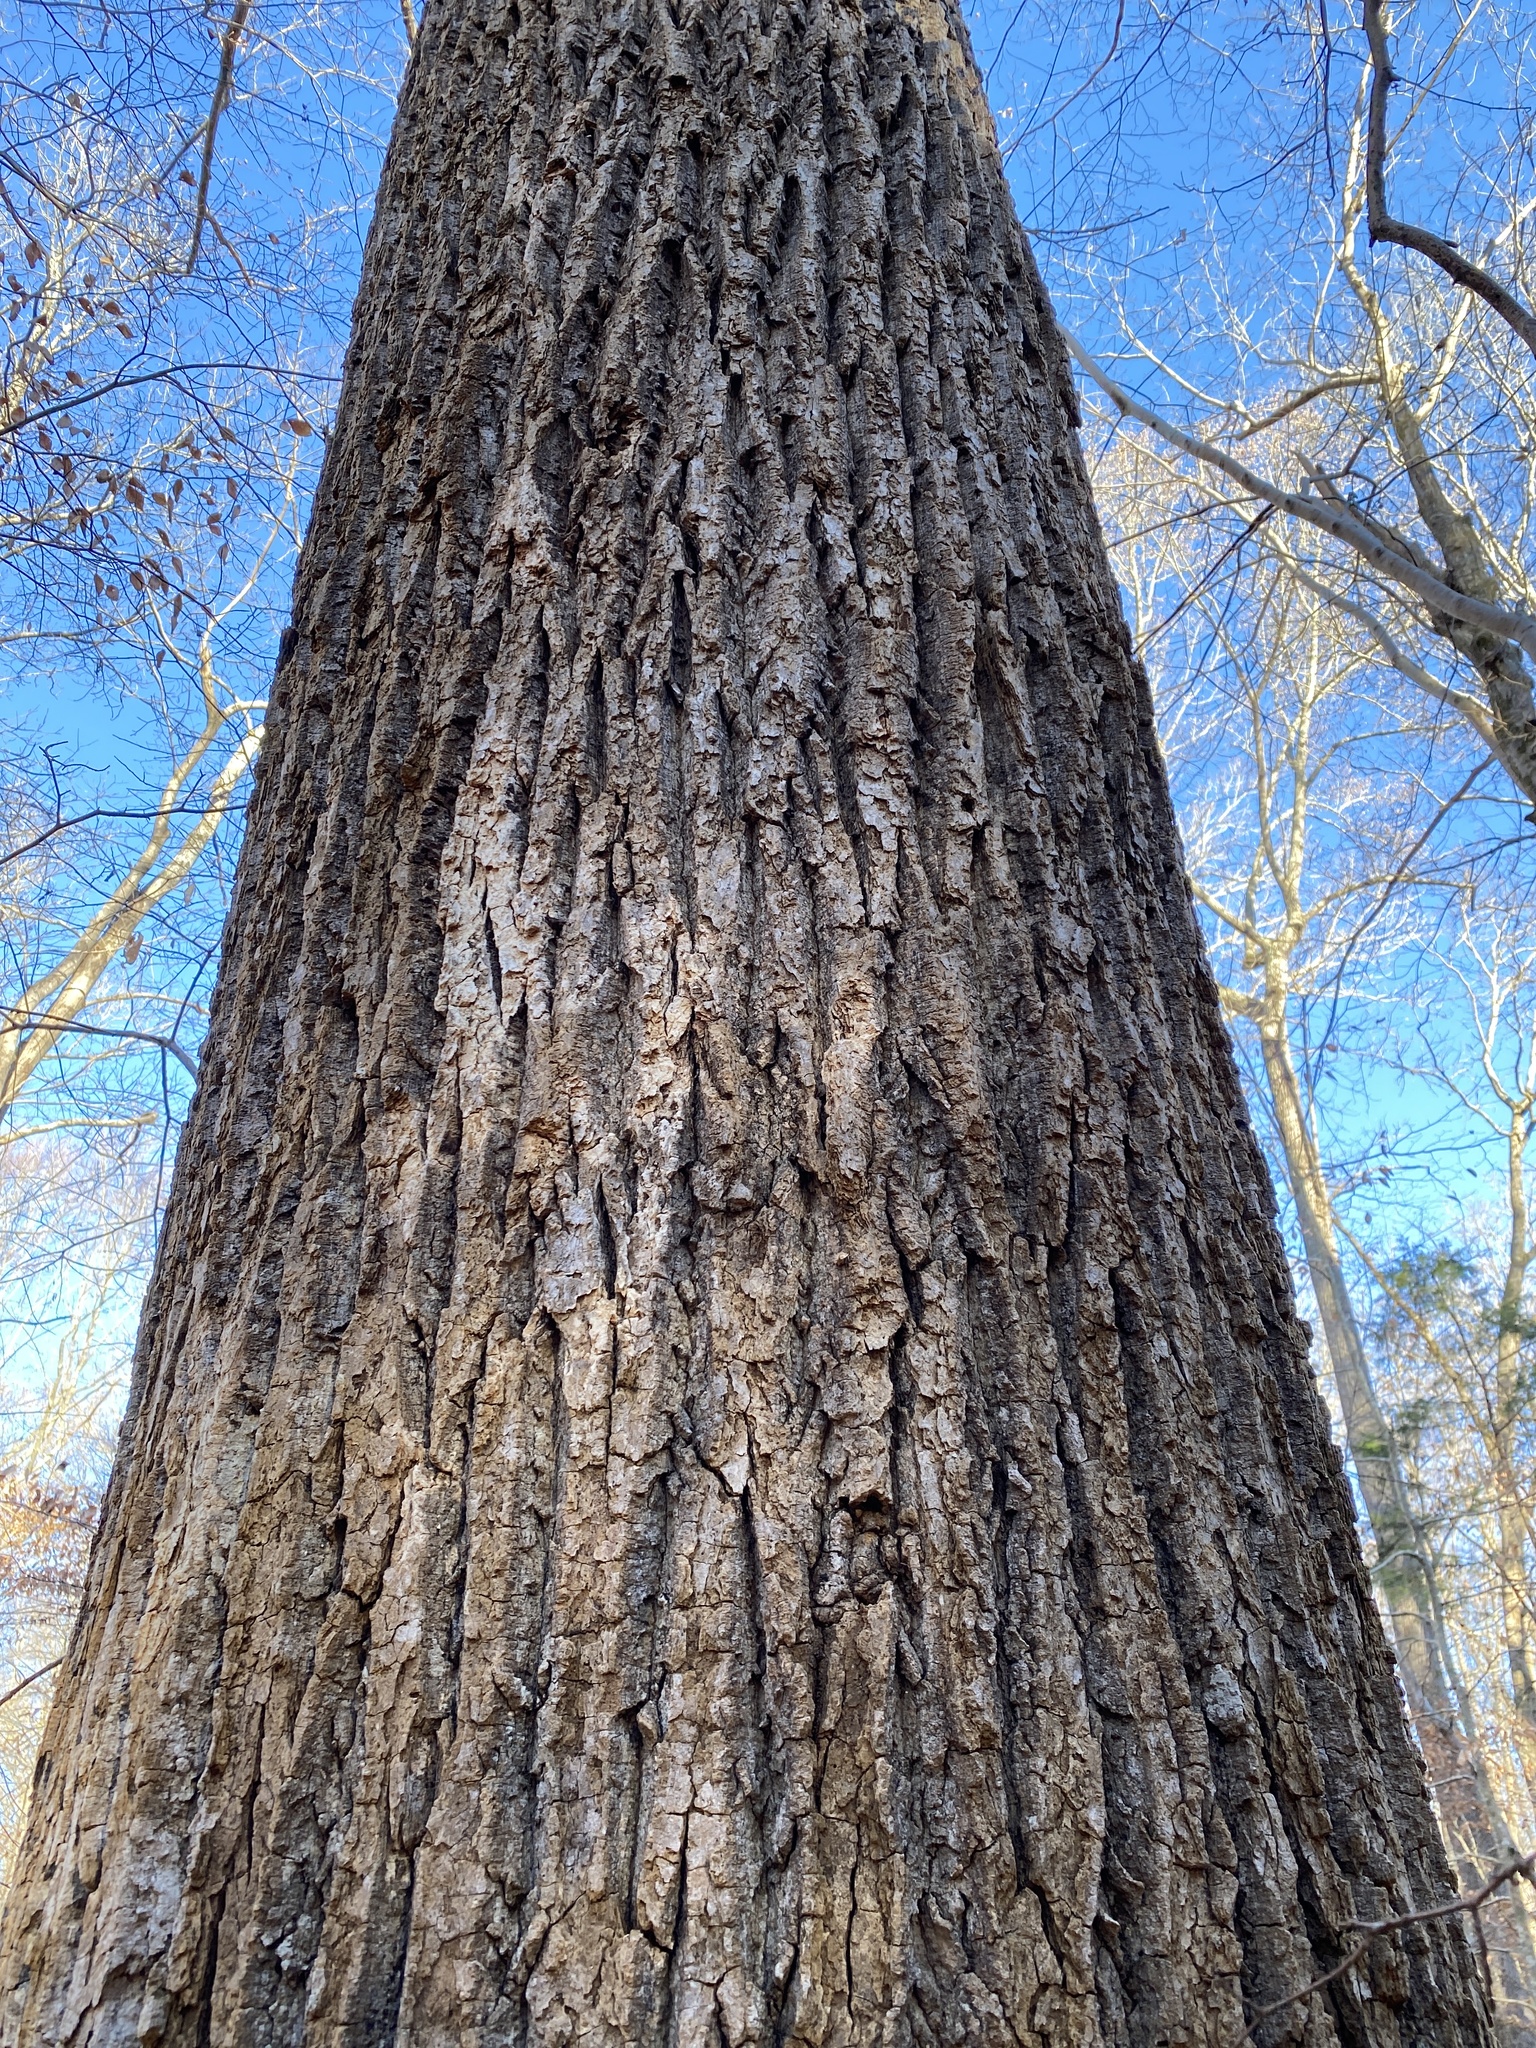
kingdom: Plantae
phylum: Tracheophyta
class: Magnoliopsida
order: Magnoliales
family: Magnoliaceae
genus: Liriodendron
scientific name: Liriodendron tulipifera
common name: Tulip tree
